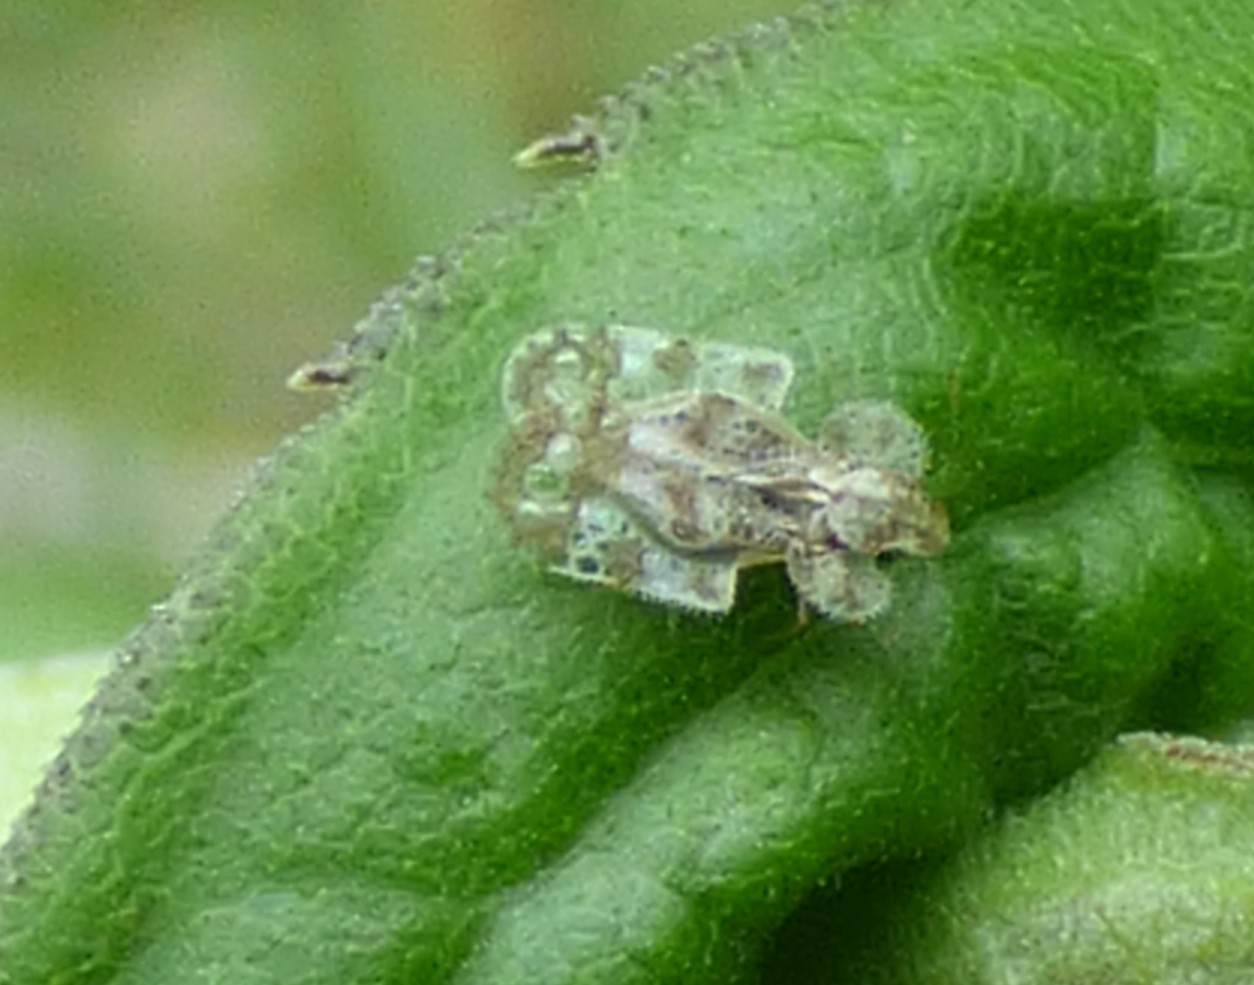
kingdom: Animalia
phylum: Arthropoda
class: Insecta
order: Hemiptera
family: Tingidae
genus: Corythucha
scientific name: Corythucha marmorata
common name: Chrysanthemum lace bug
